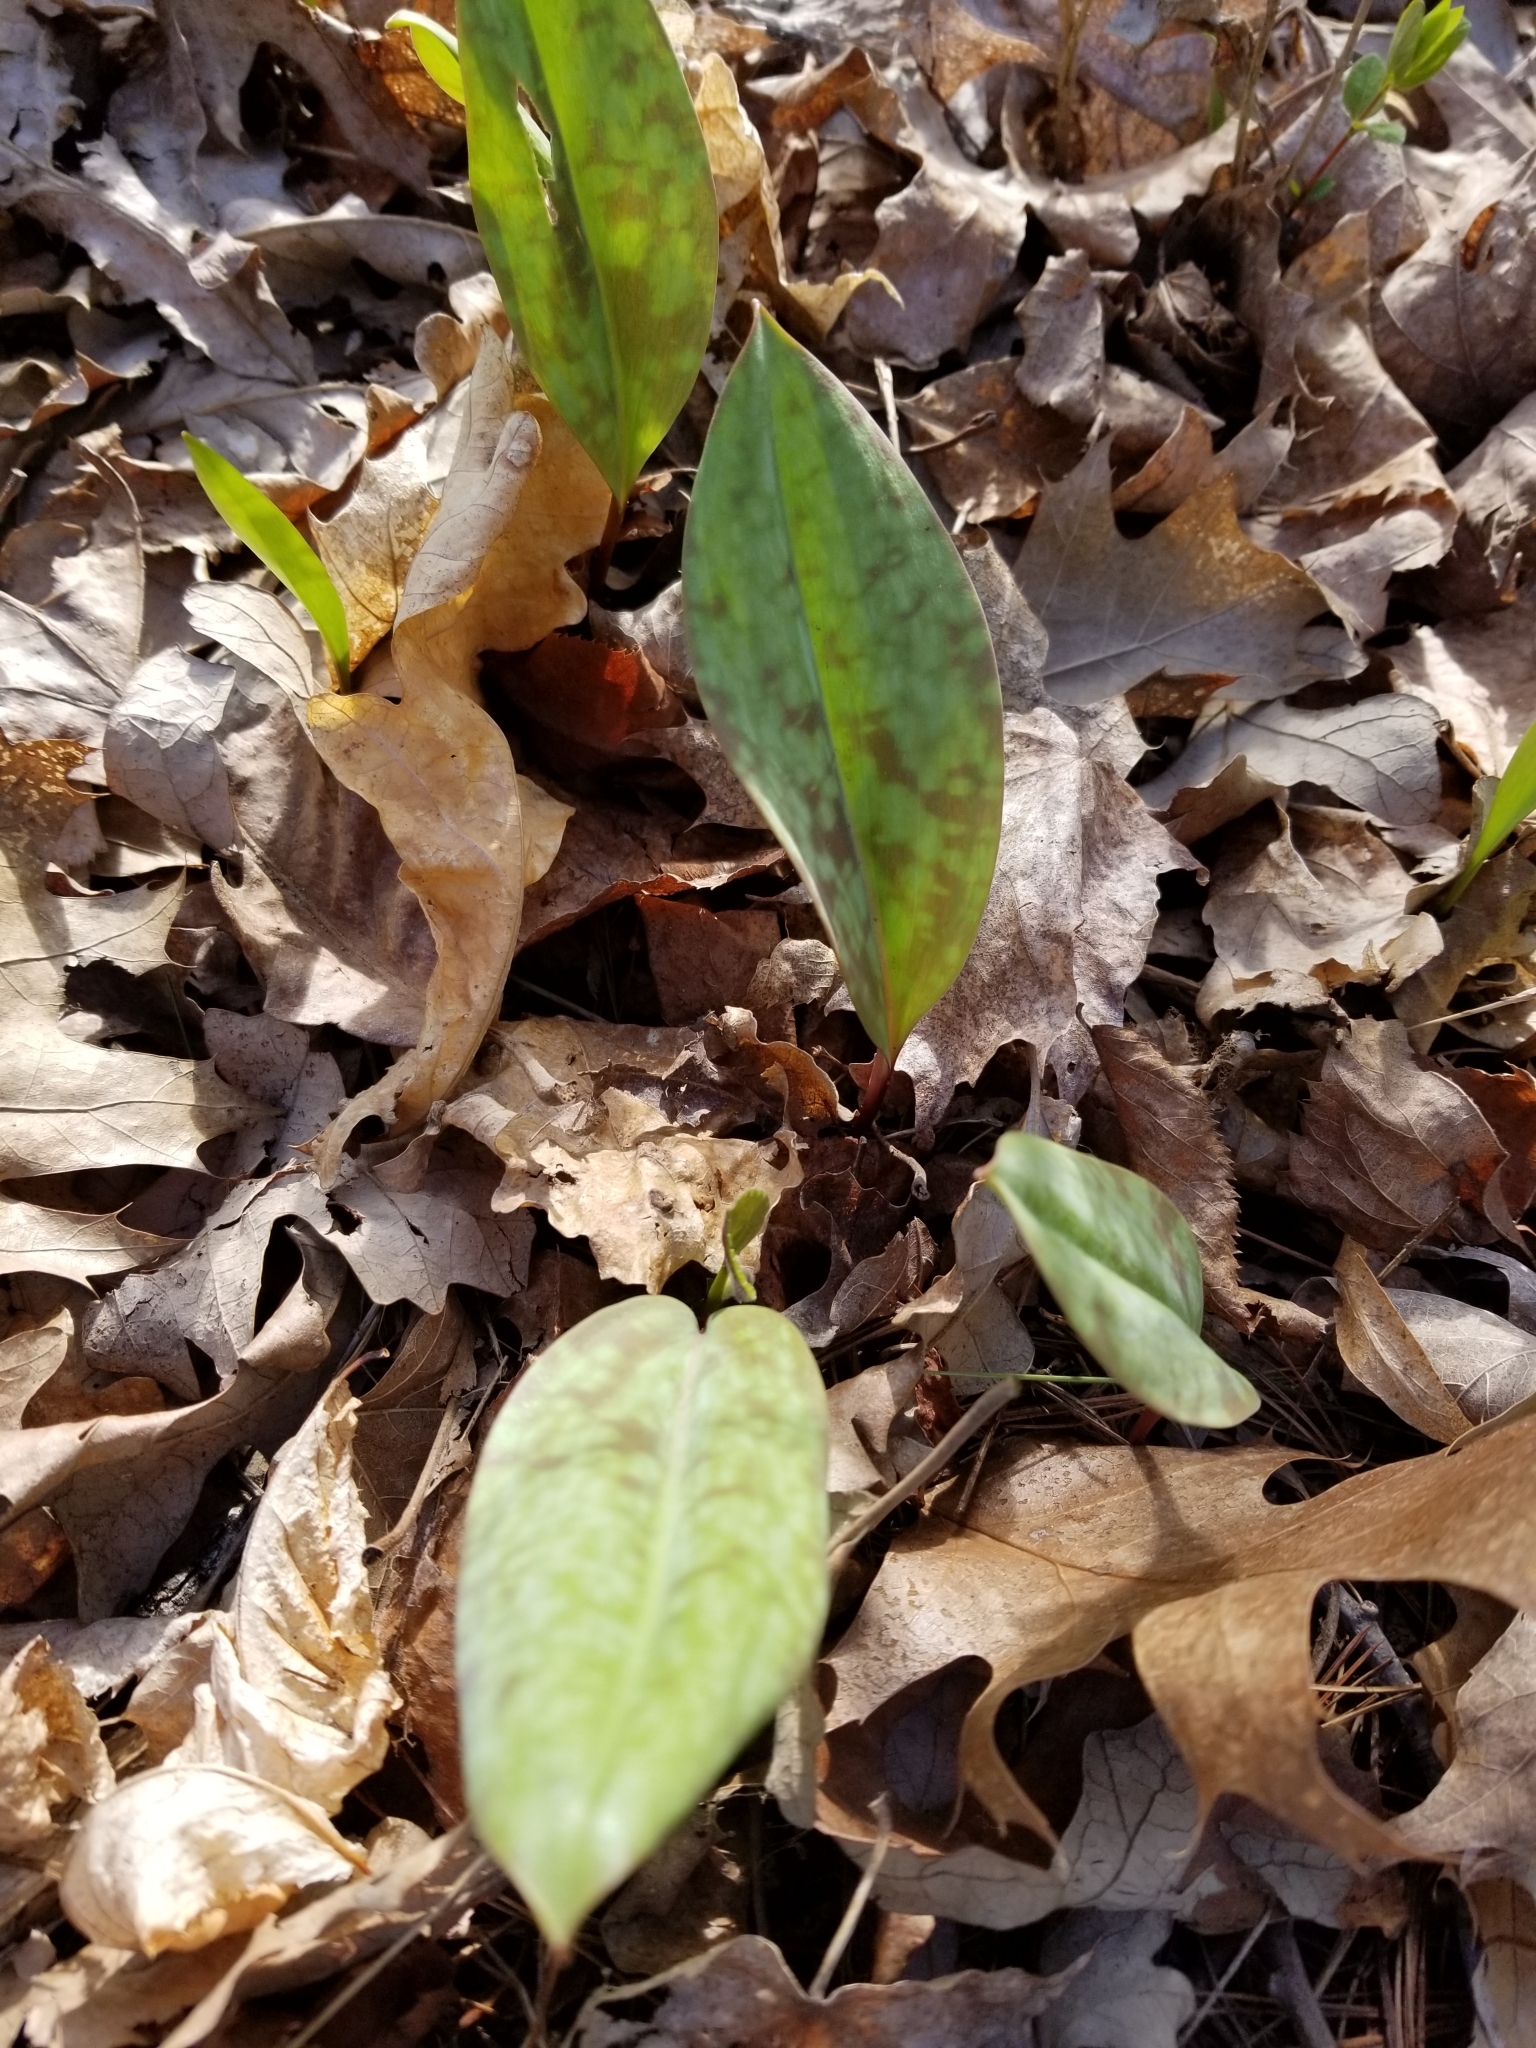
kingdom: Plantae
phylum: Tracheophyta
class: Liliopsida
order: Liliales
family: Liliaceae
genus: Erythronium
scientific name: Erythronium americanum
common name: Yellow adder's-tongue
